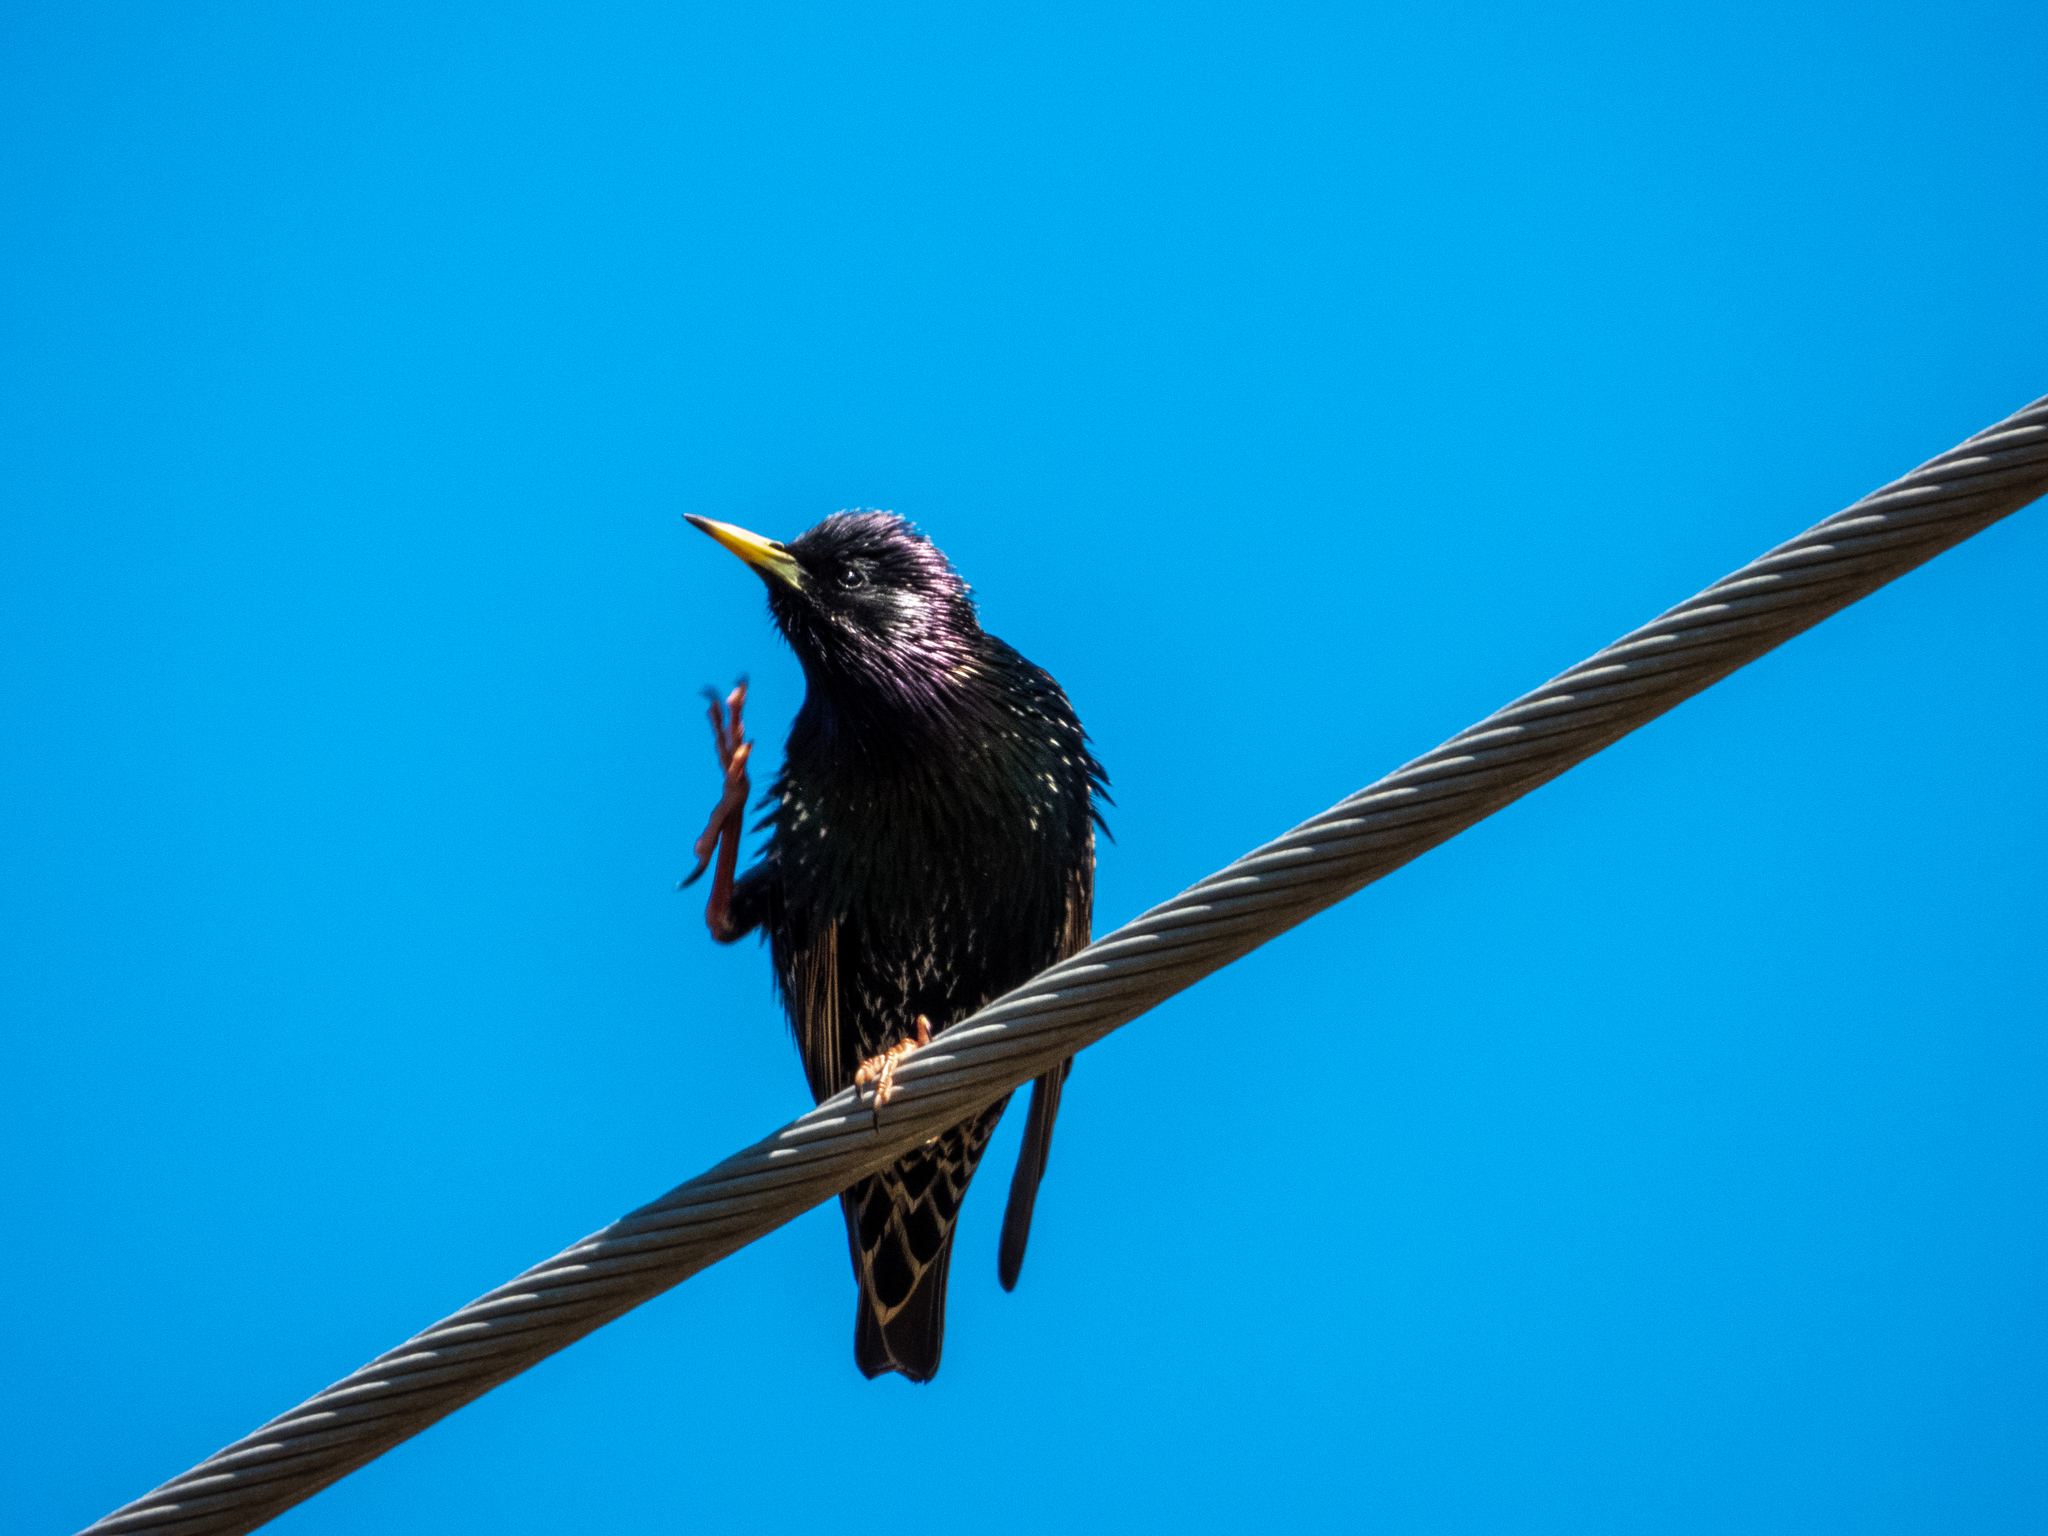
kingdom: Animalia
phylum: Chordata
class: Aves
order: Passeriformes
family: Sturnidae
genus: Sturnus
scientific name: Sturnus vulgaris
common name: Common starling
